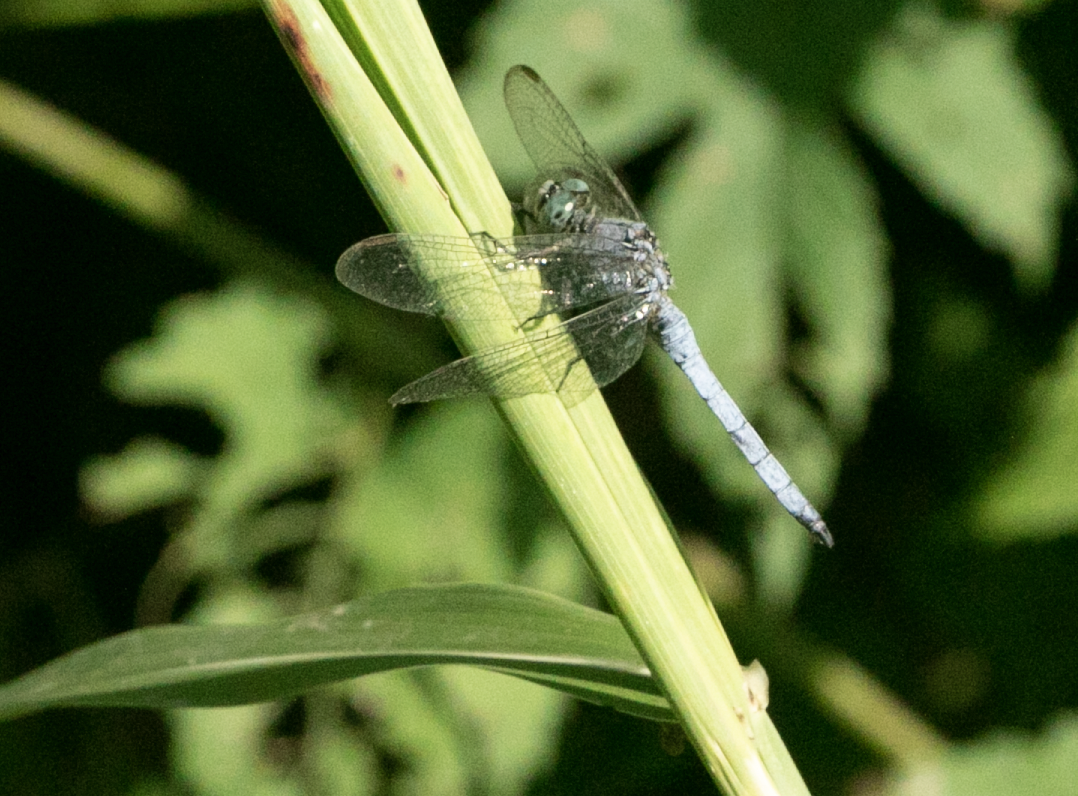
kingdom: Animalia
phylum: Arthropoda
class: Insecta
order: Odonata
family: Libellulidae
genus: Orthetrum
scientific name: Orthetrum coerulescens
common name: Keeled skimmer
